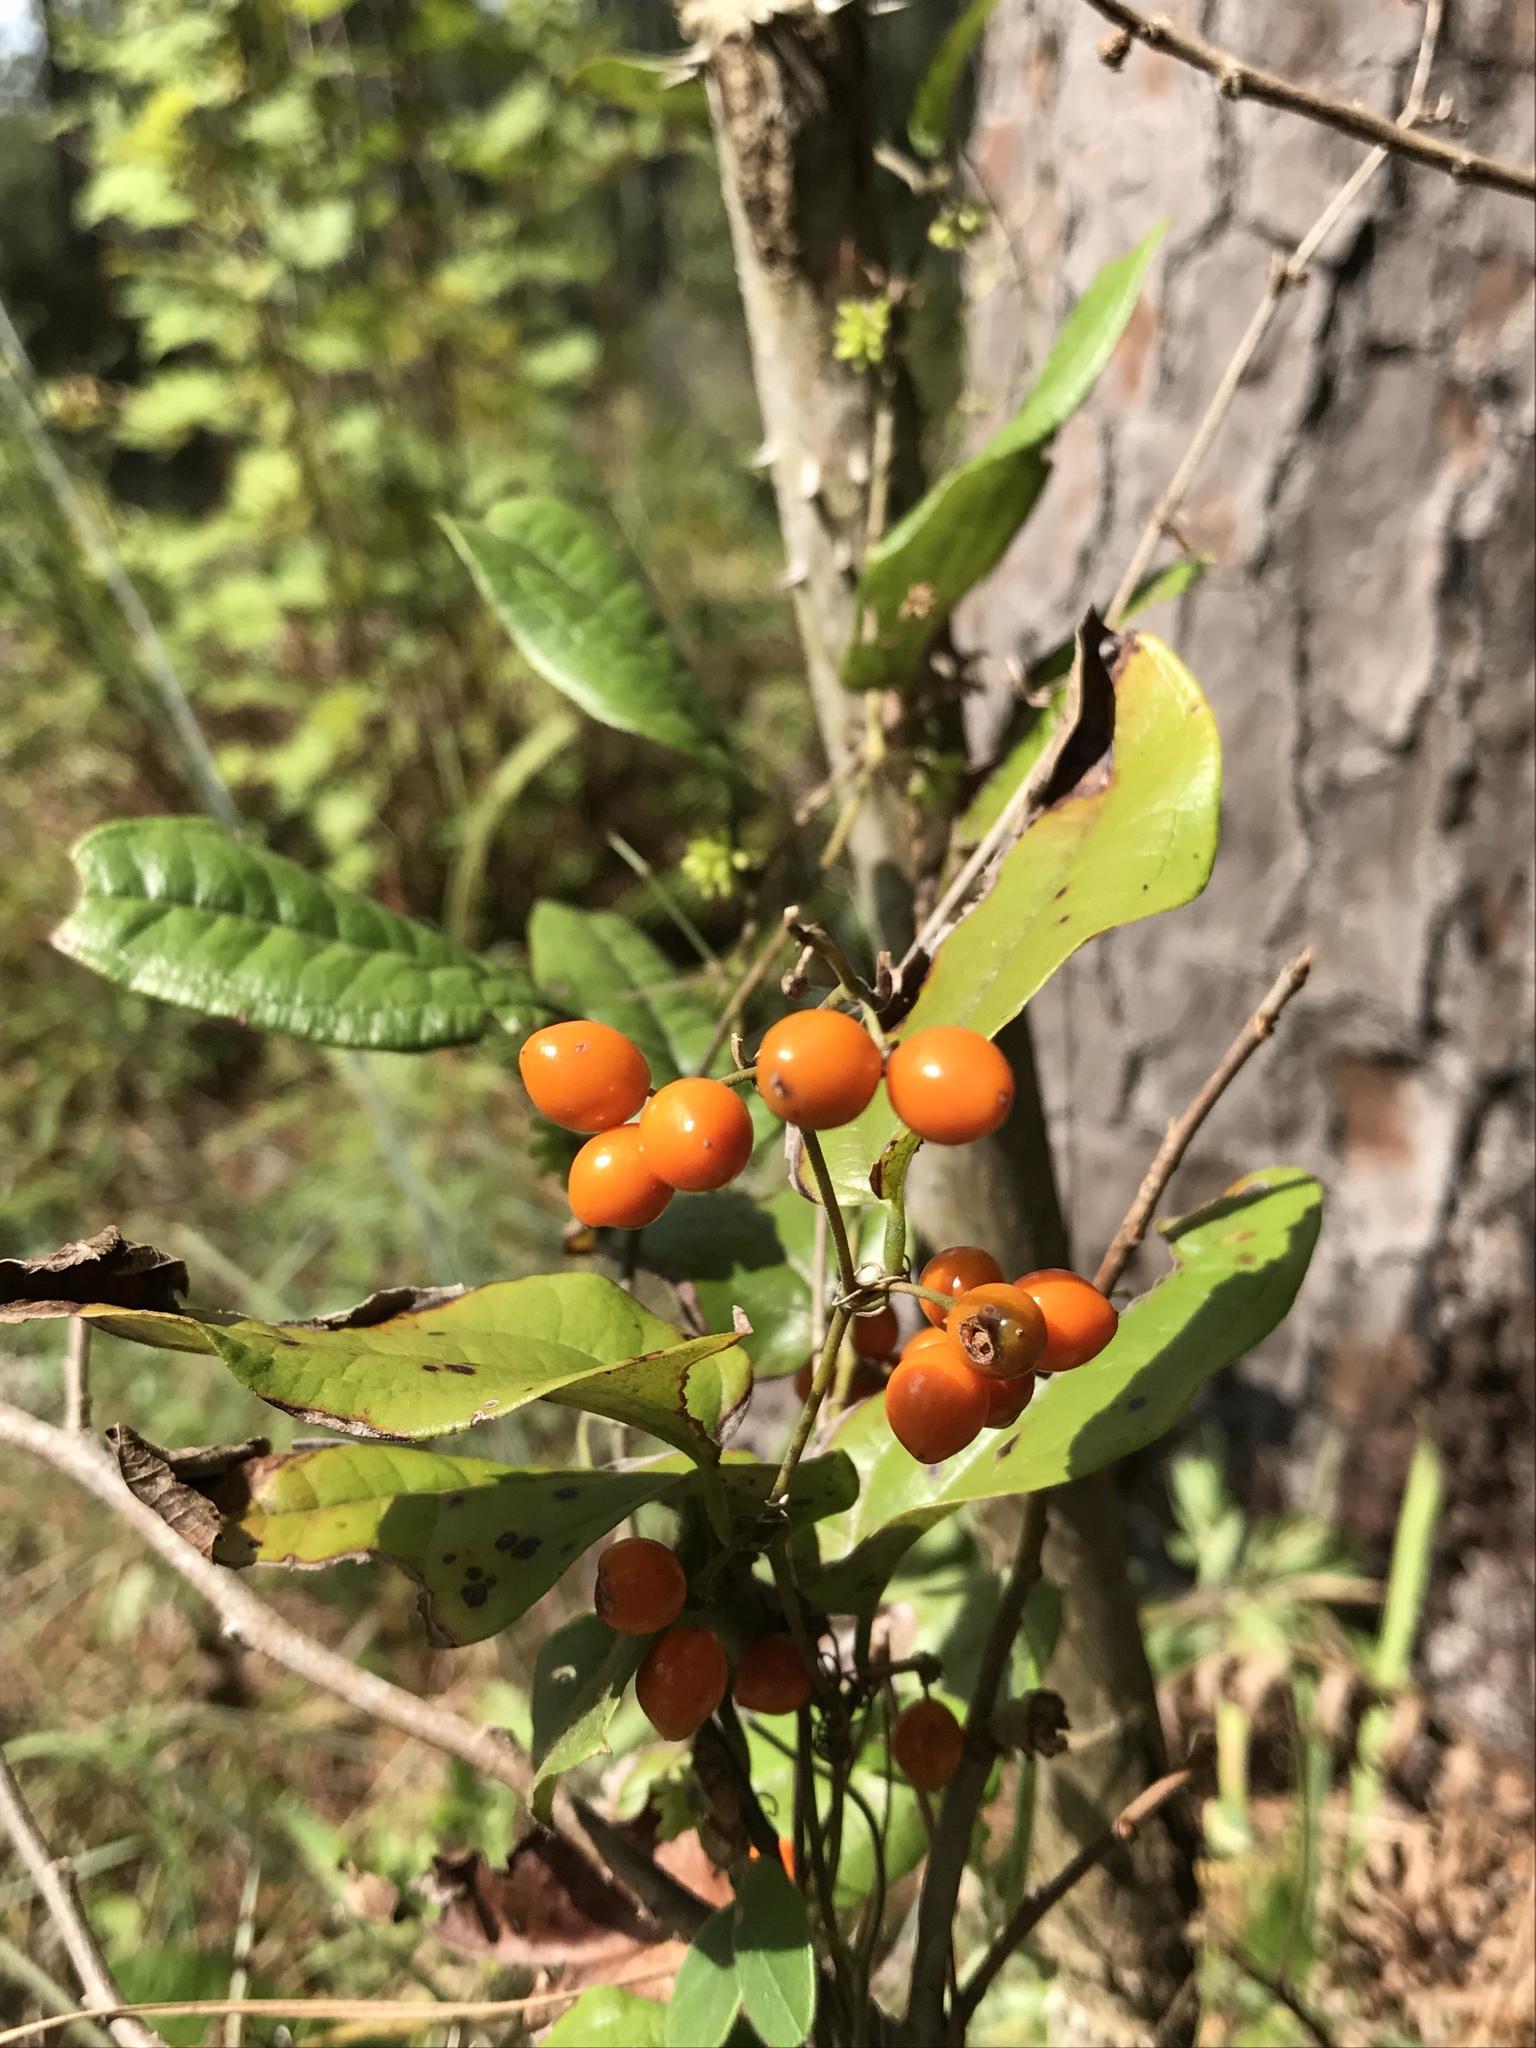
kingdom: Plantae
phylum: Tracheophyta
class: Liliopsida
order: Liliales
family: Smilacaceae
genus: Smilax
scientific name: Smilax pumila
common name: Sarsaparilla-vine
